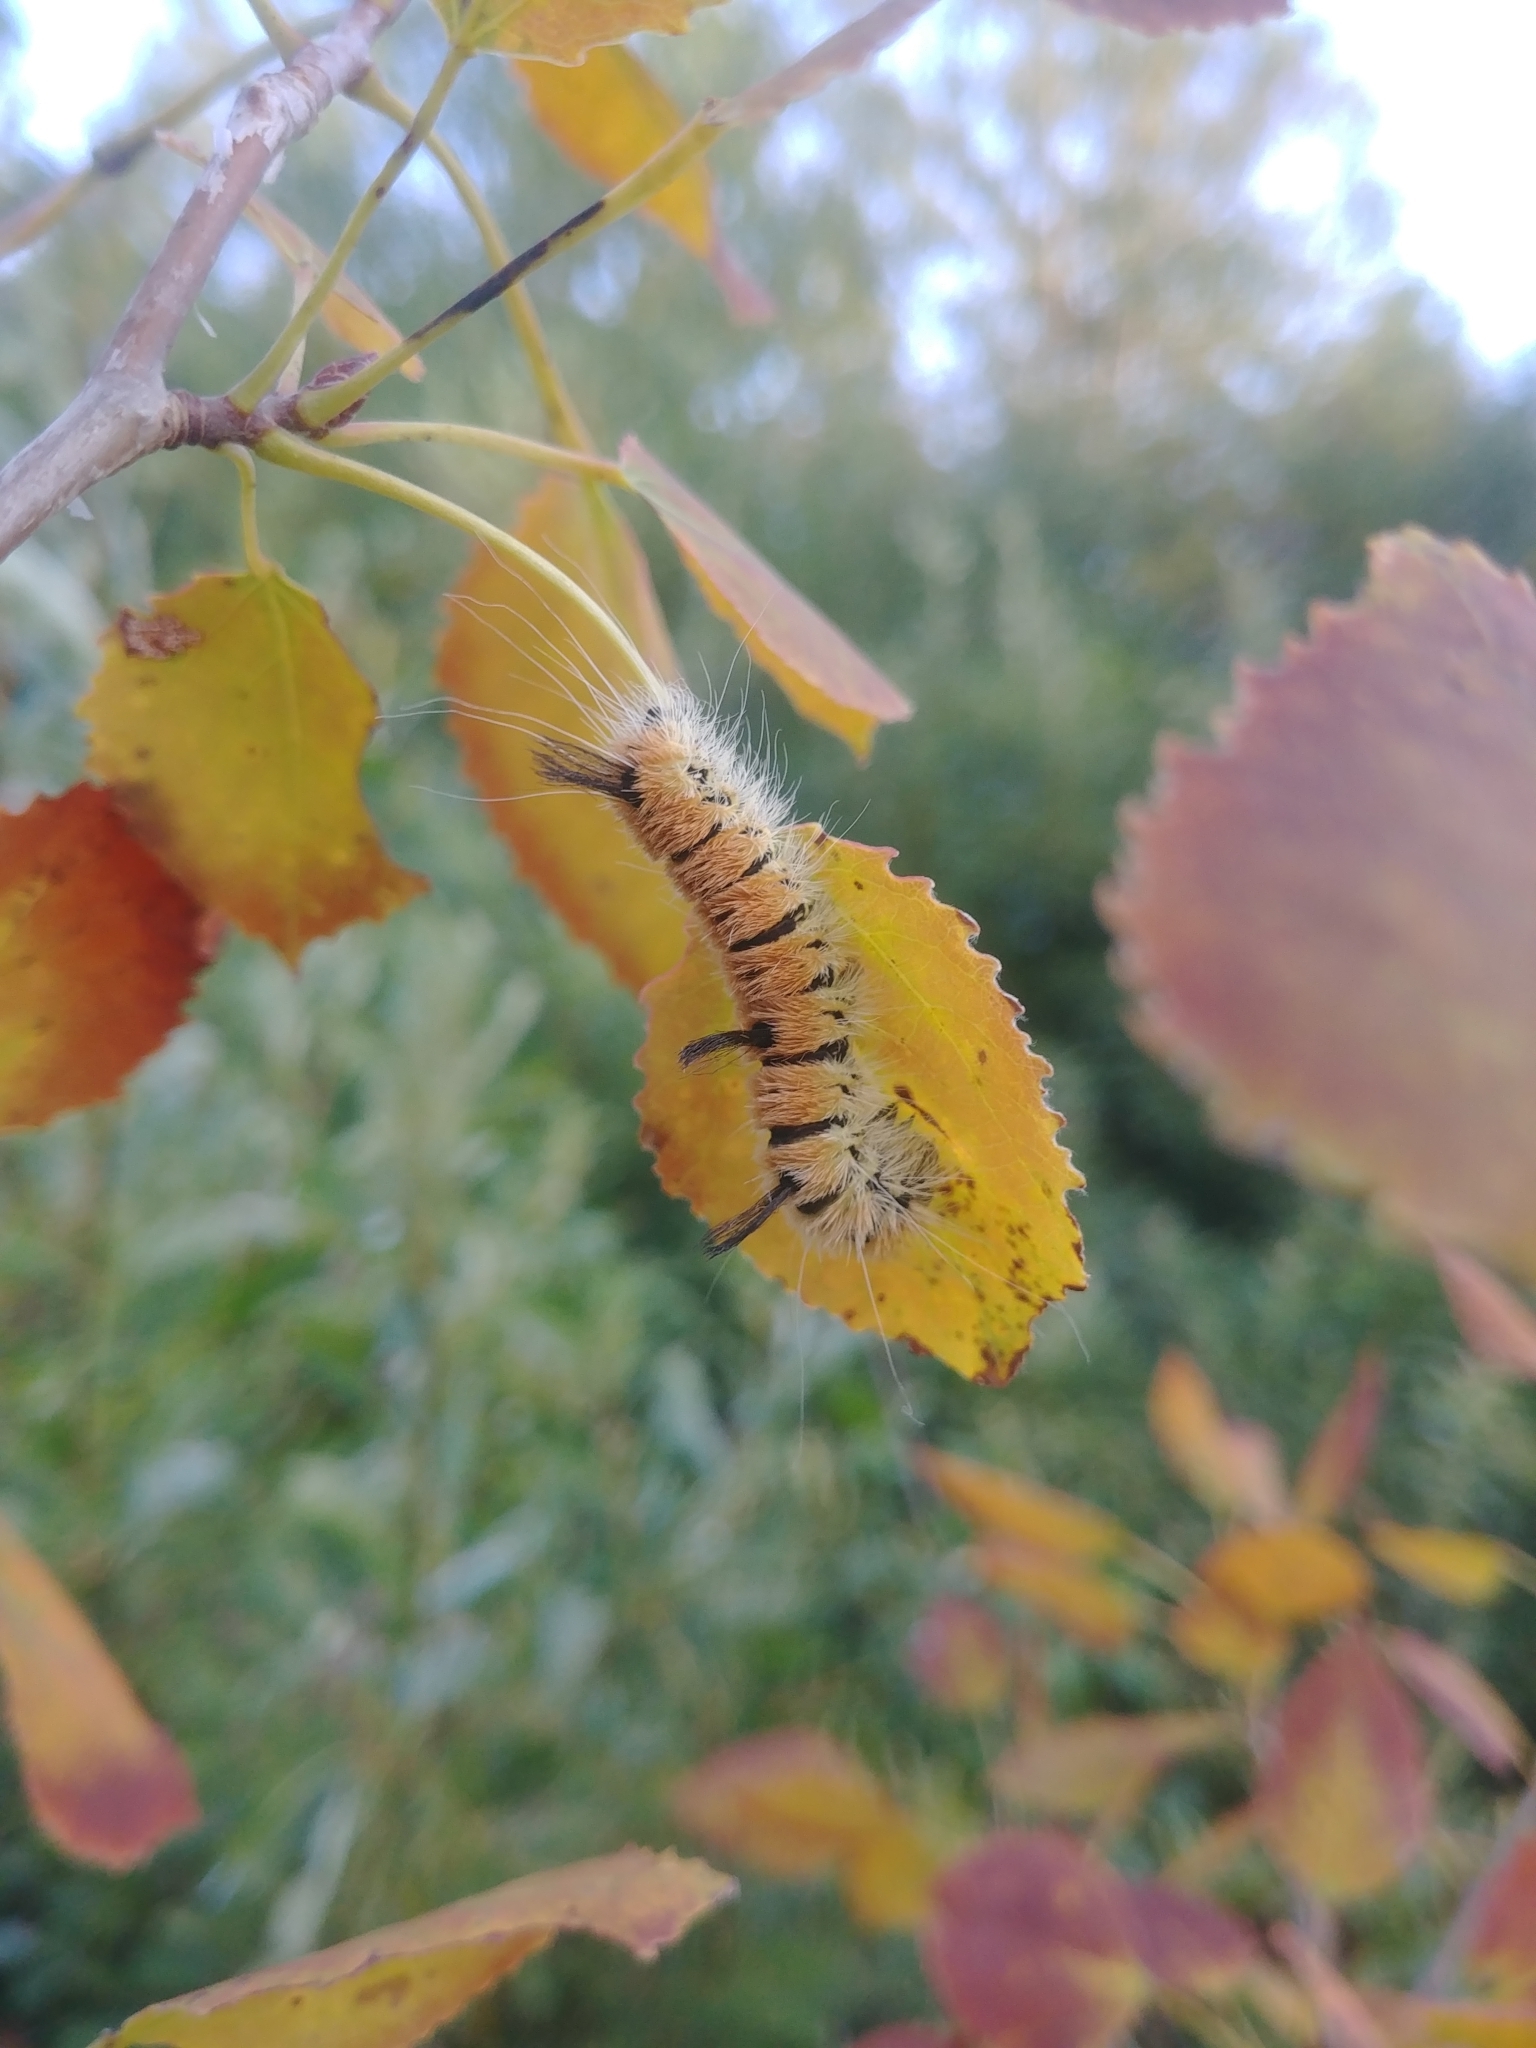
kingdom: Animalia
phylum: Arthropoda
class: Insecta
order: Lepidoptera
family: Noctuidae
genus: Acronicta
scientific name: Acronicta insita
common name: Large gray dagger
